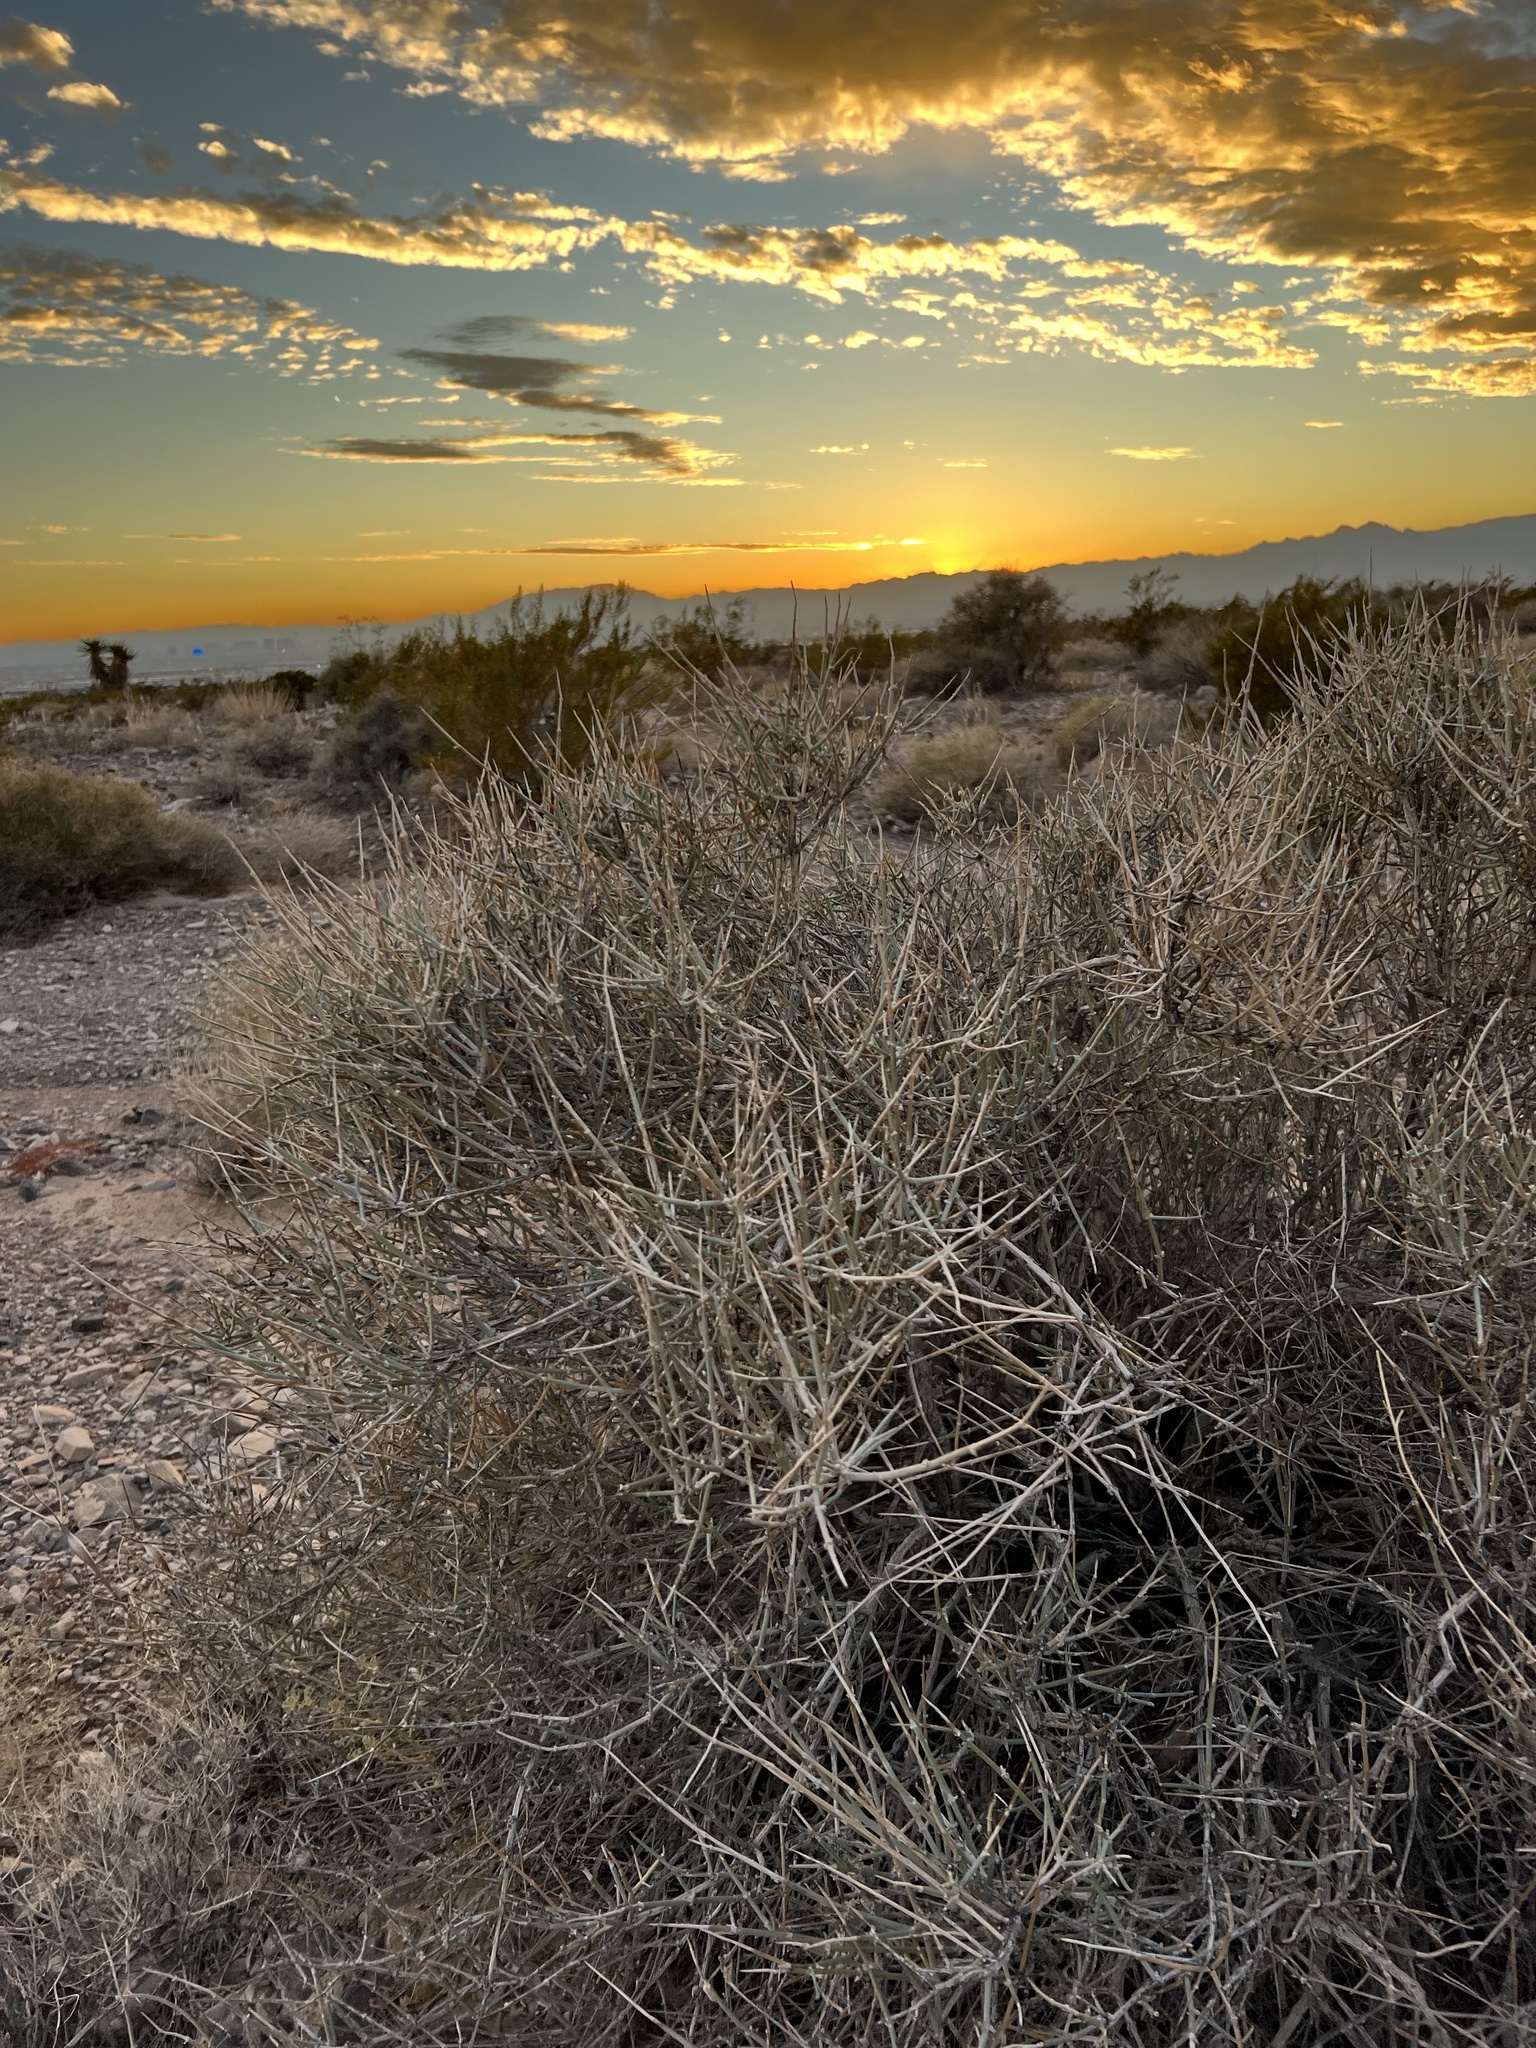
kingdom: Plantae
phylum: Tracheophyta
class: Gnetopsida
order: Ephedrales
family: Ephedraceae
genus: Ephedra
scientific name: Ephedra nevadensis
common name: Gray ephedra
